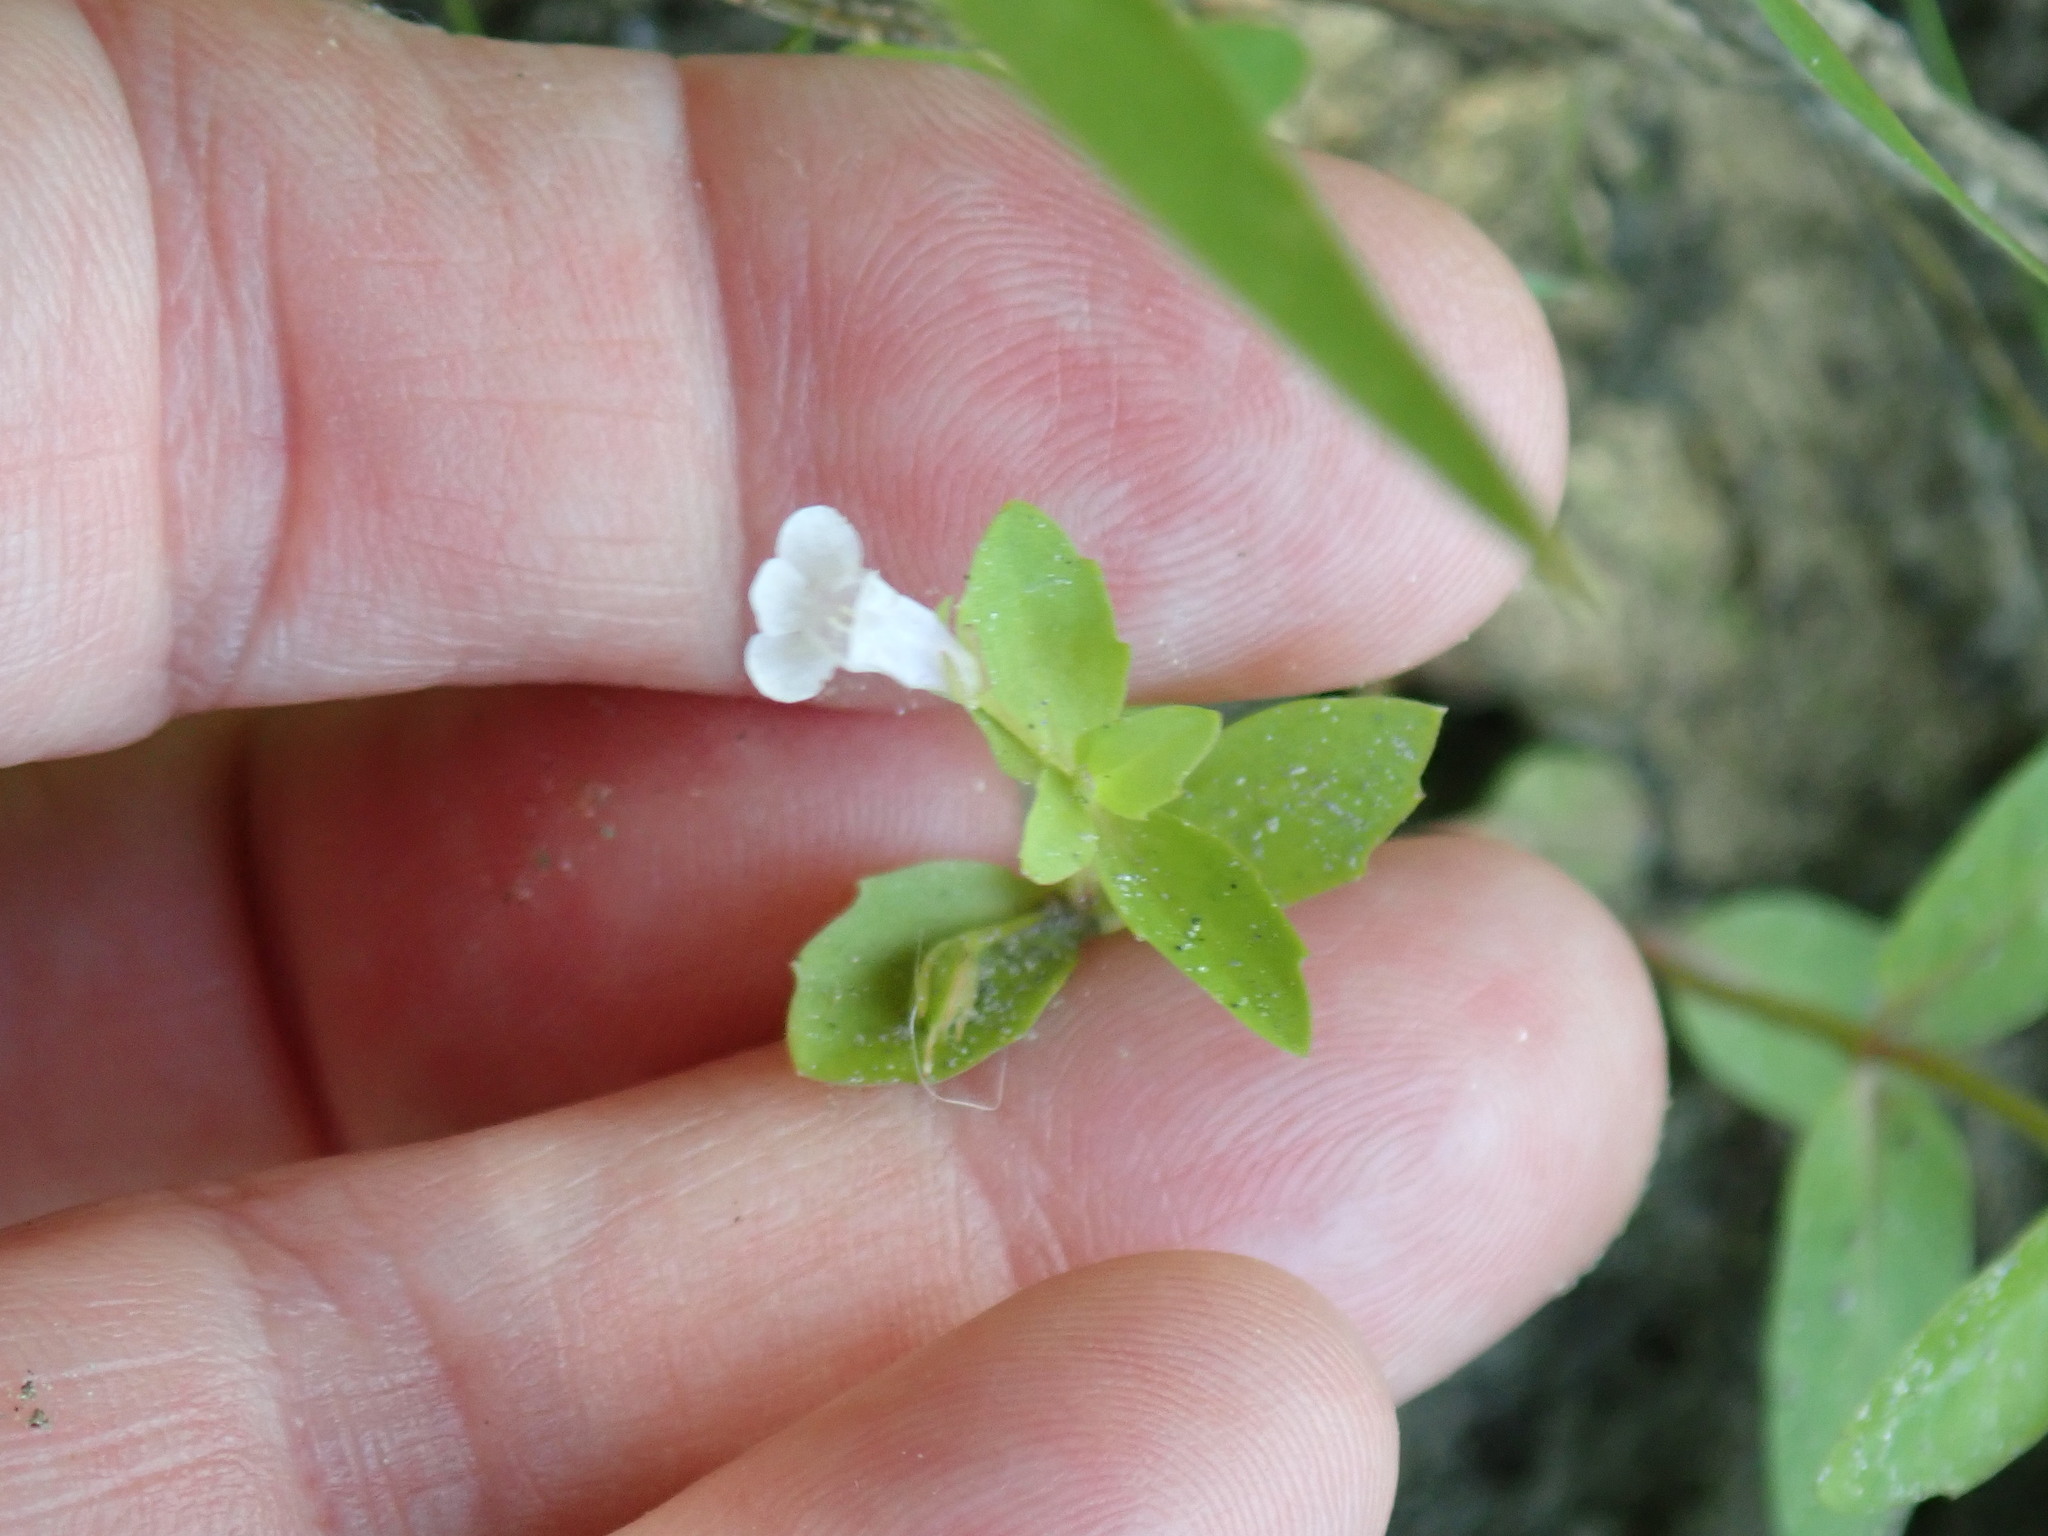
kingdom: Plantae
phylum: Tracheophyta
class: Magnoliopsida
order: Lamiales
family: Linderniaceae
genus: Lindernia
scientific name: Lindernia dubia
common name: Annual false pimpernel
